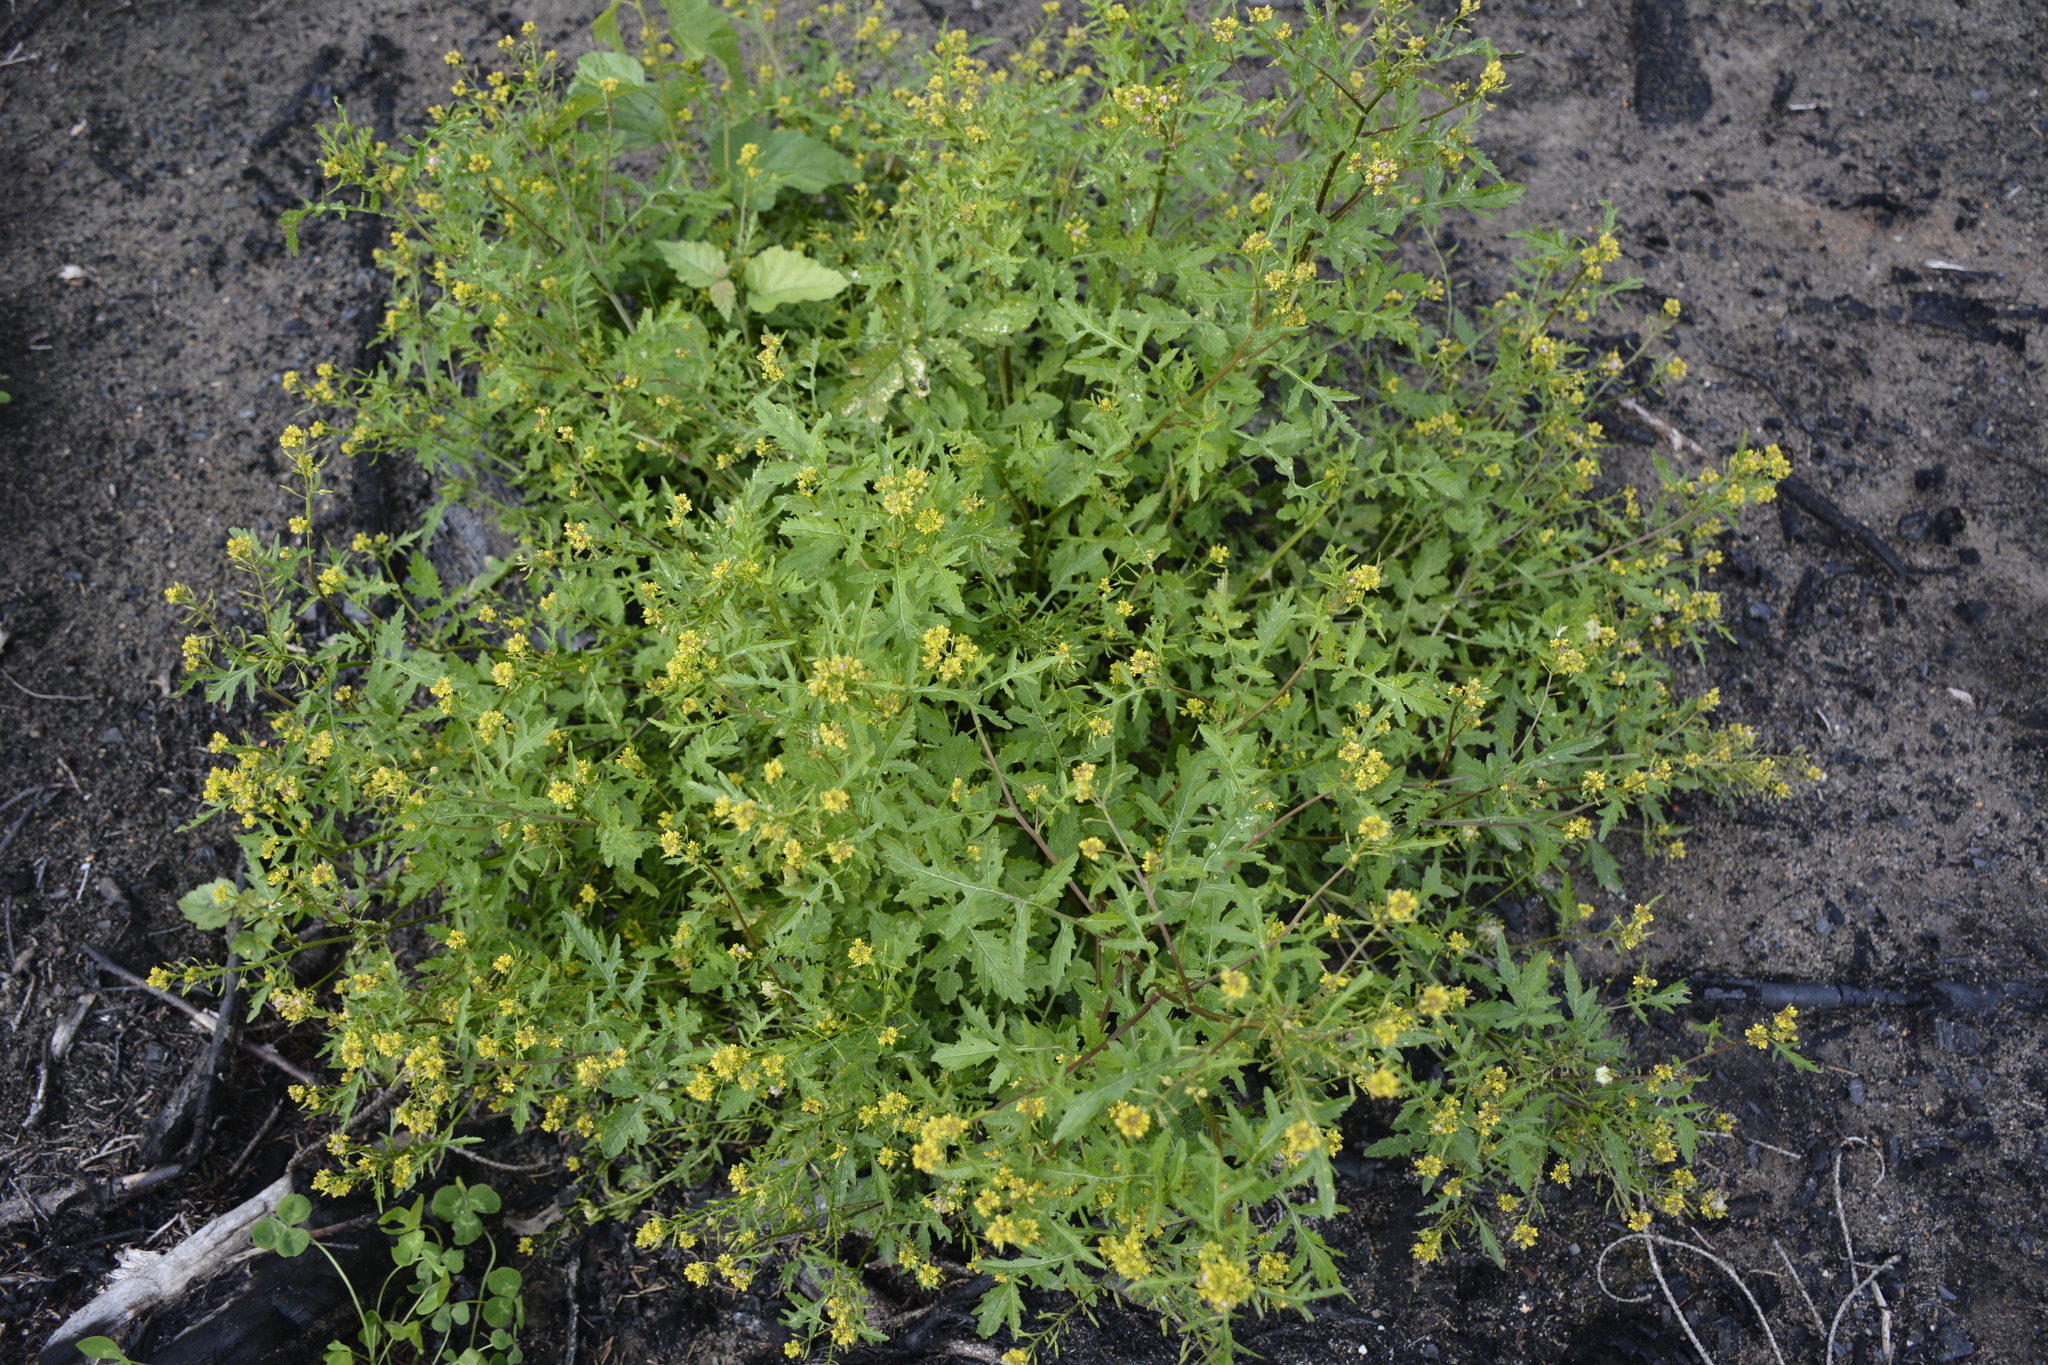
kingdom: Plantae
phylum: Tracheophyta
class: Magnoliopsida
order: Brassicales
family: Brassicaceae
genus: Rorippa
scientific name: Rorippa palustris
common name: Marsh yellow-cress
